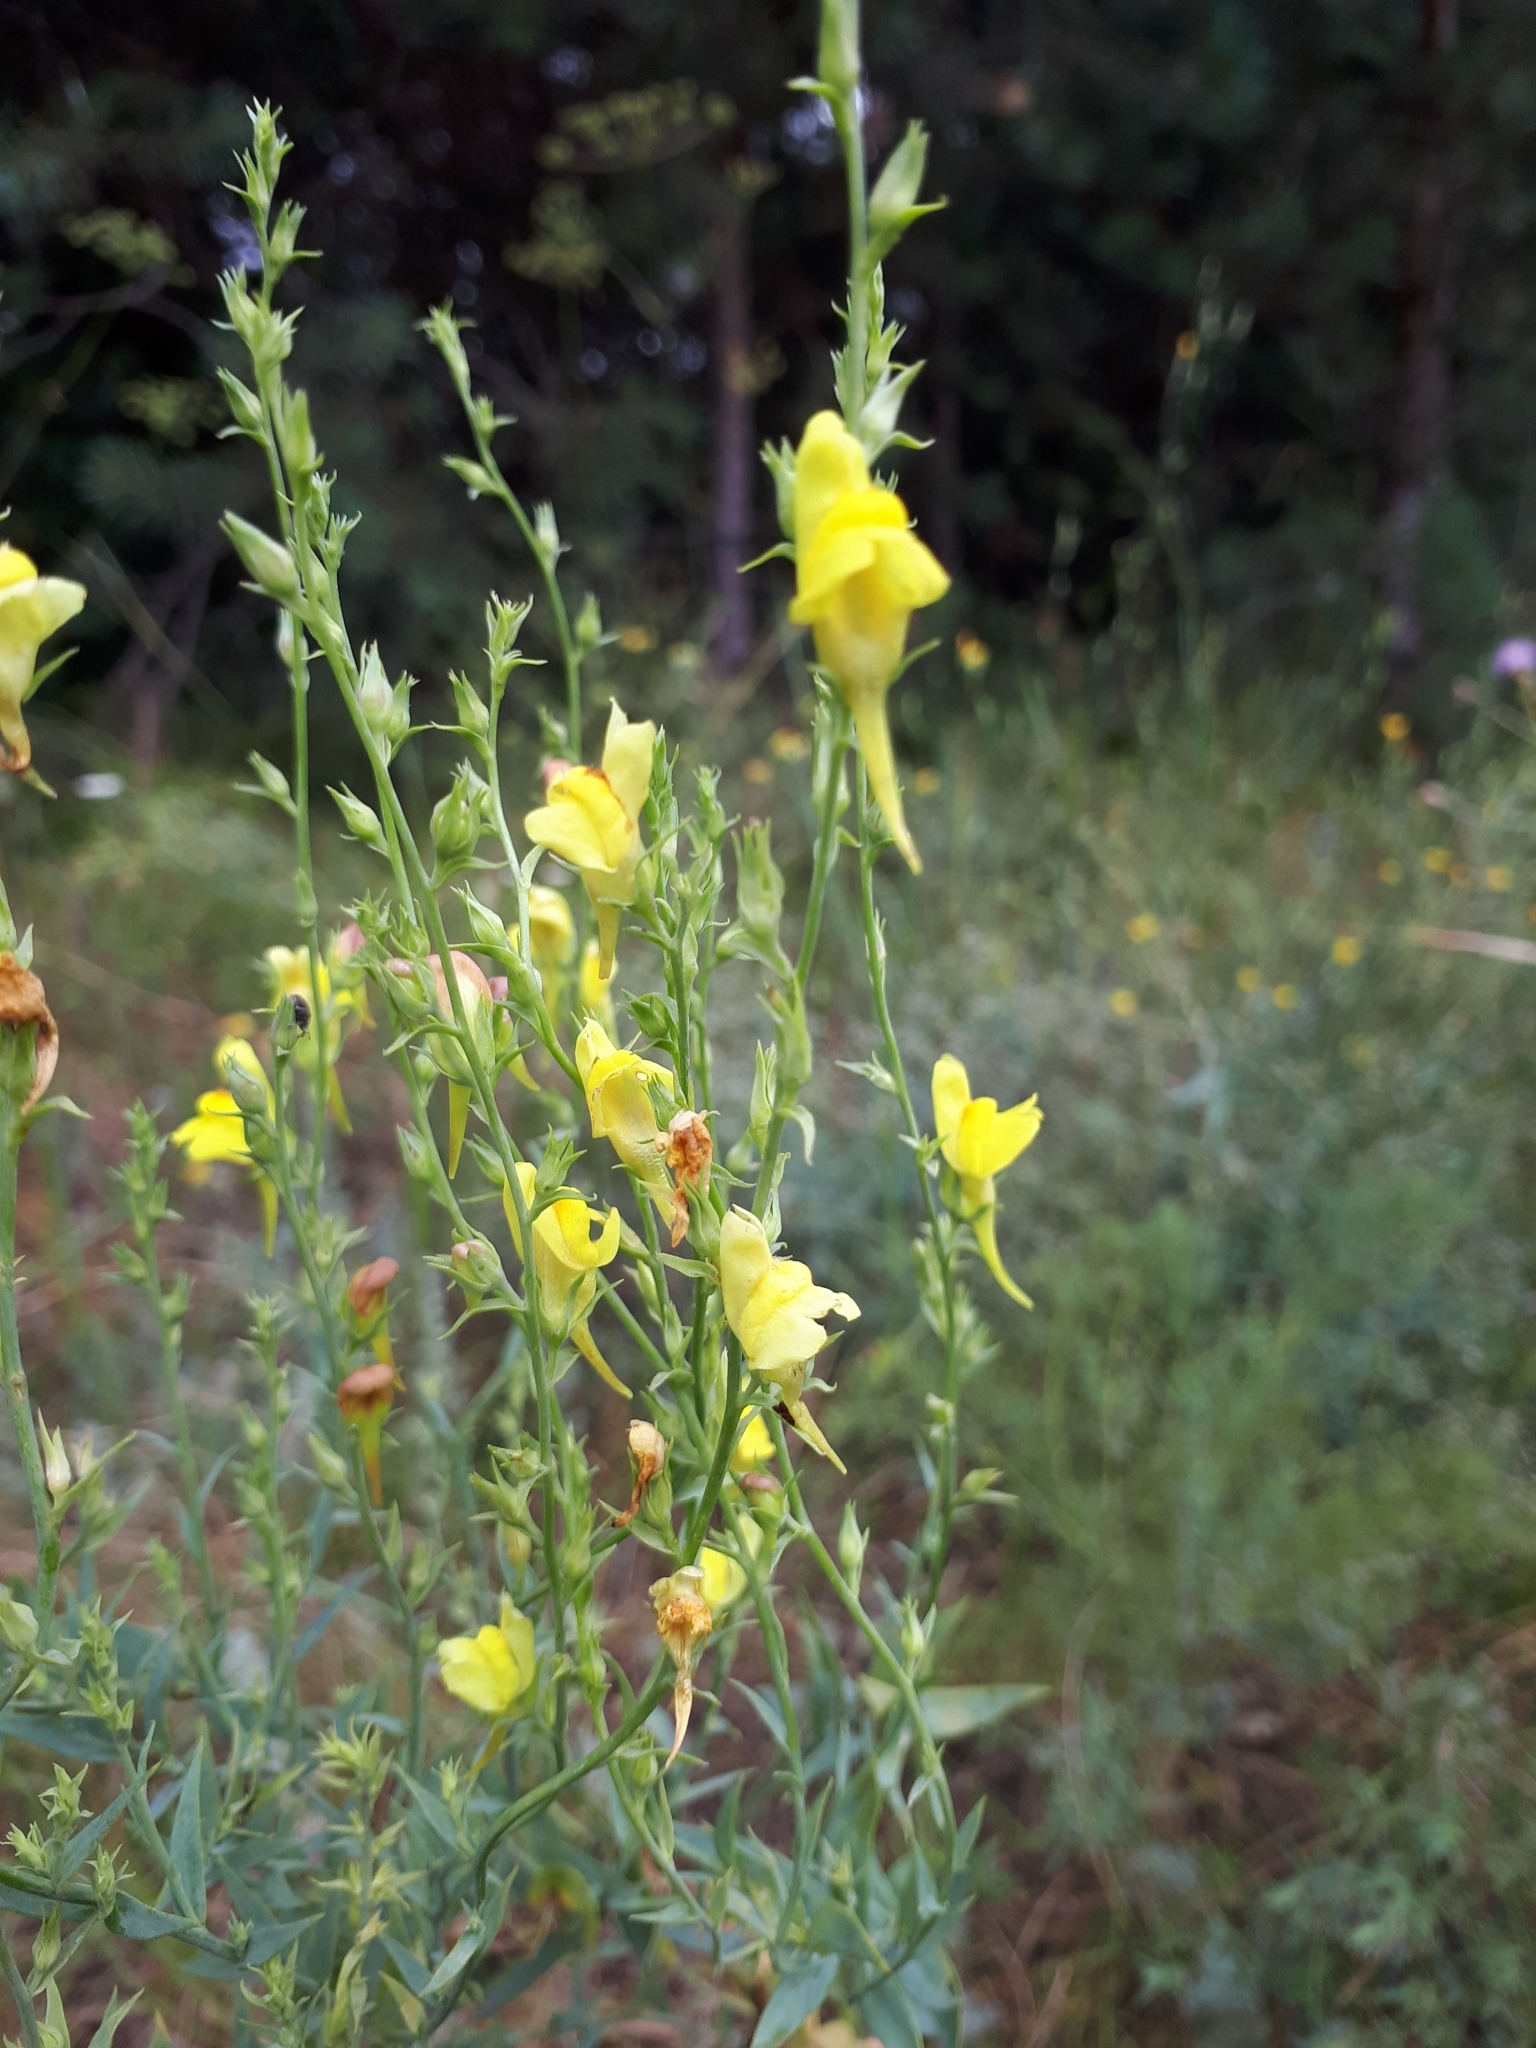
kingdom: Plantae
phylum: Tracheophyta
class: Magnoliopsida
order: Lamiales
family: Plantaginaceae
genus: Linaria
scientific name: Linaria vulgaris
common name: Butter and eggs
